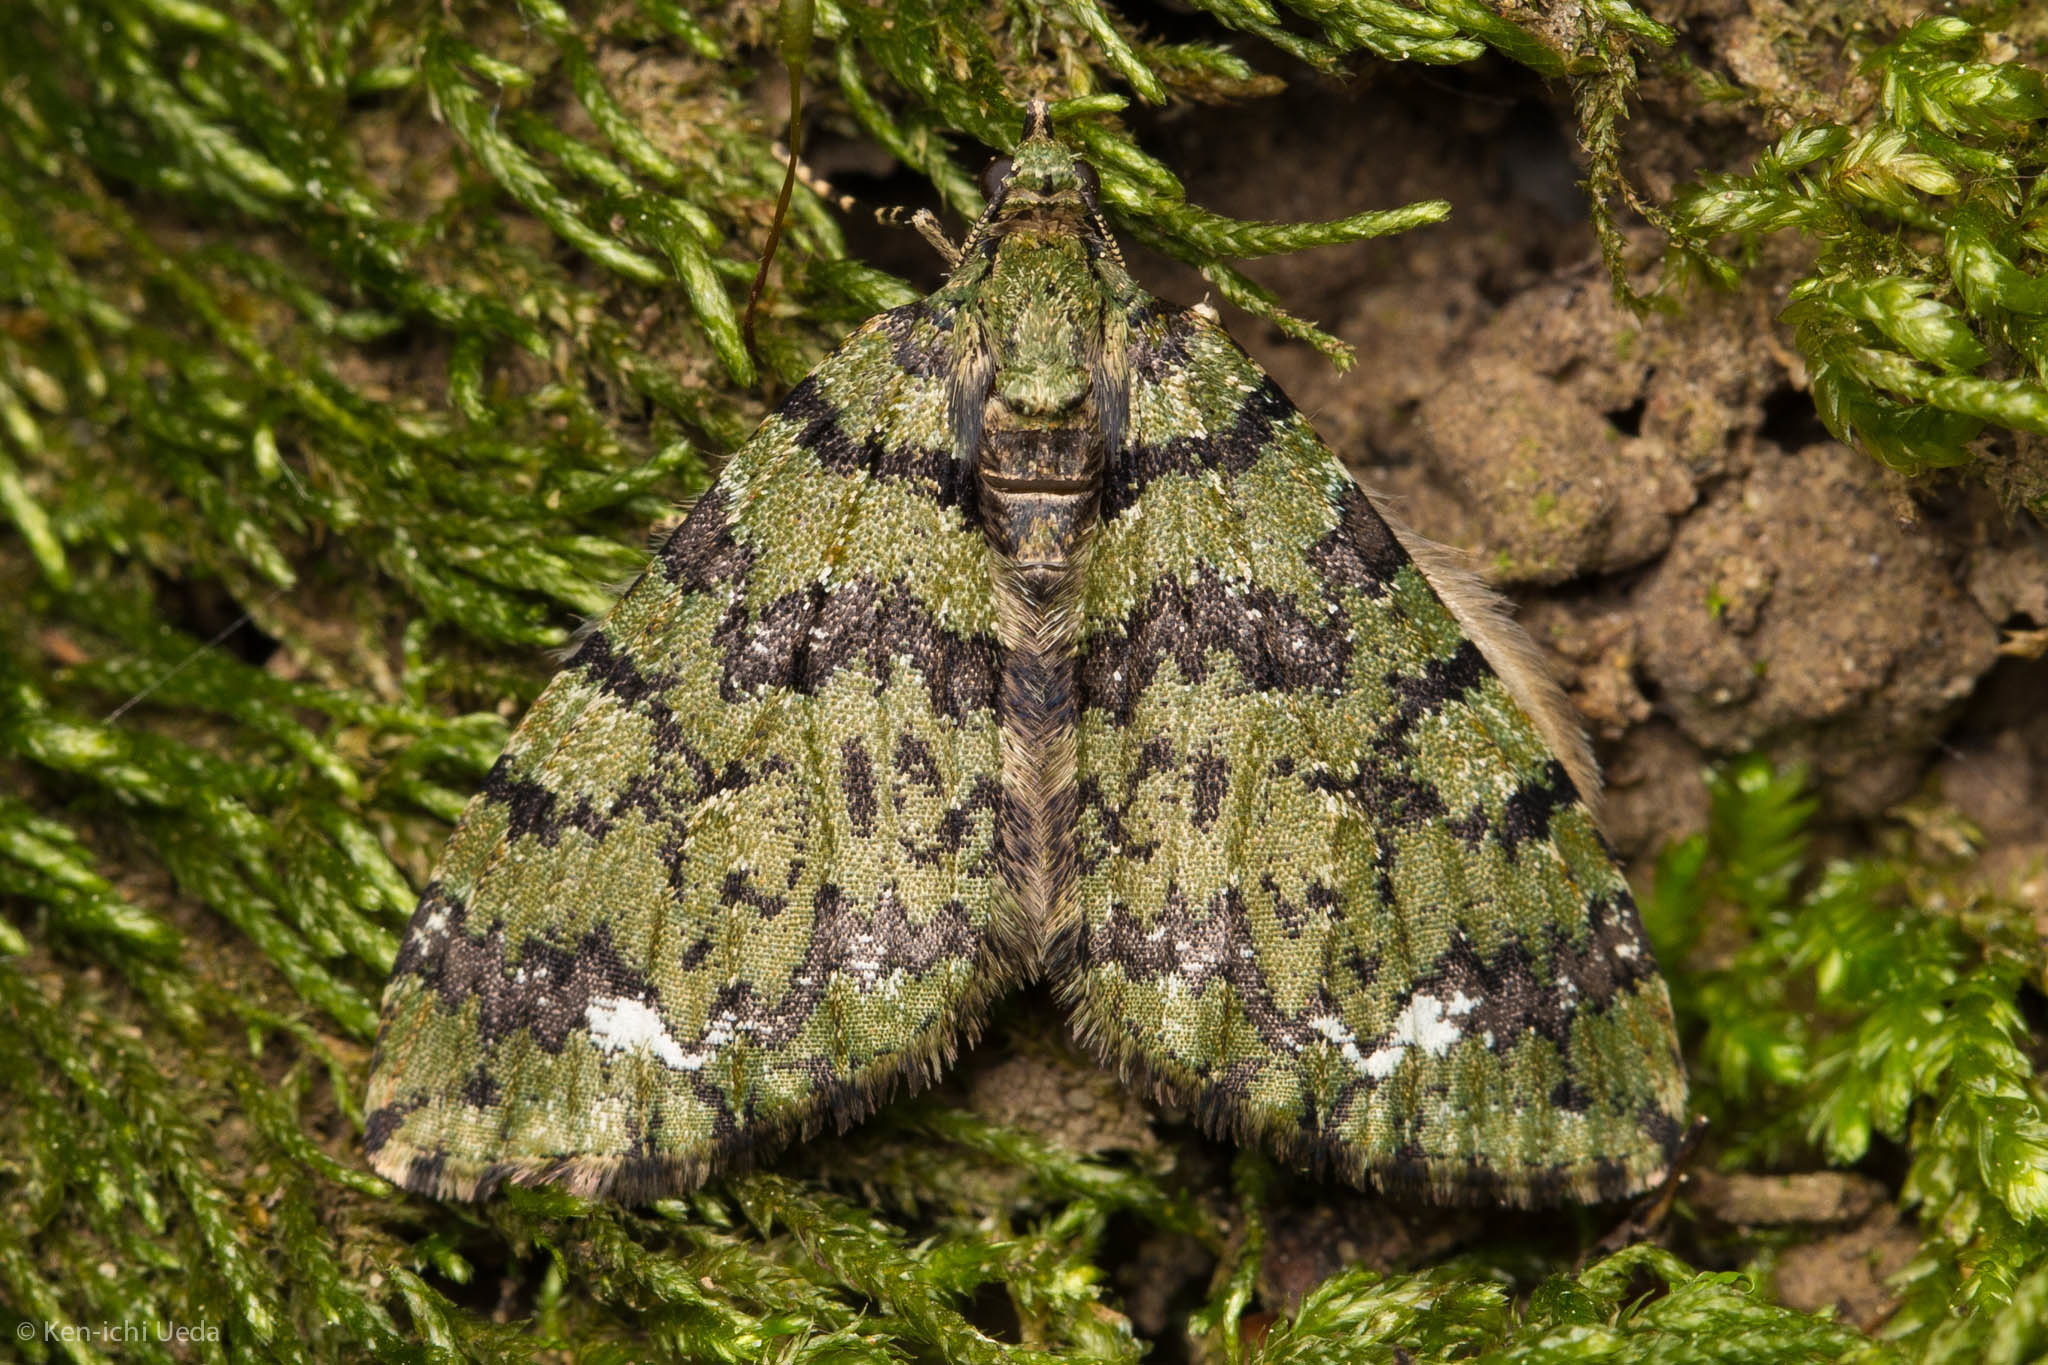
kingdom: Animalia
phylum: Arthropoda
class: Insecta
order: Lepidoptera
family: Geometridae
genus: Hydriomena
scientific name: Hydriomena albifasciata
